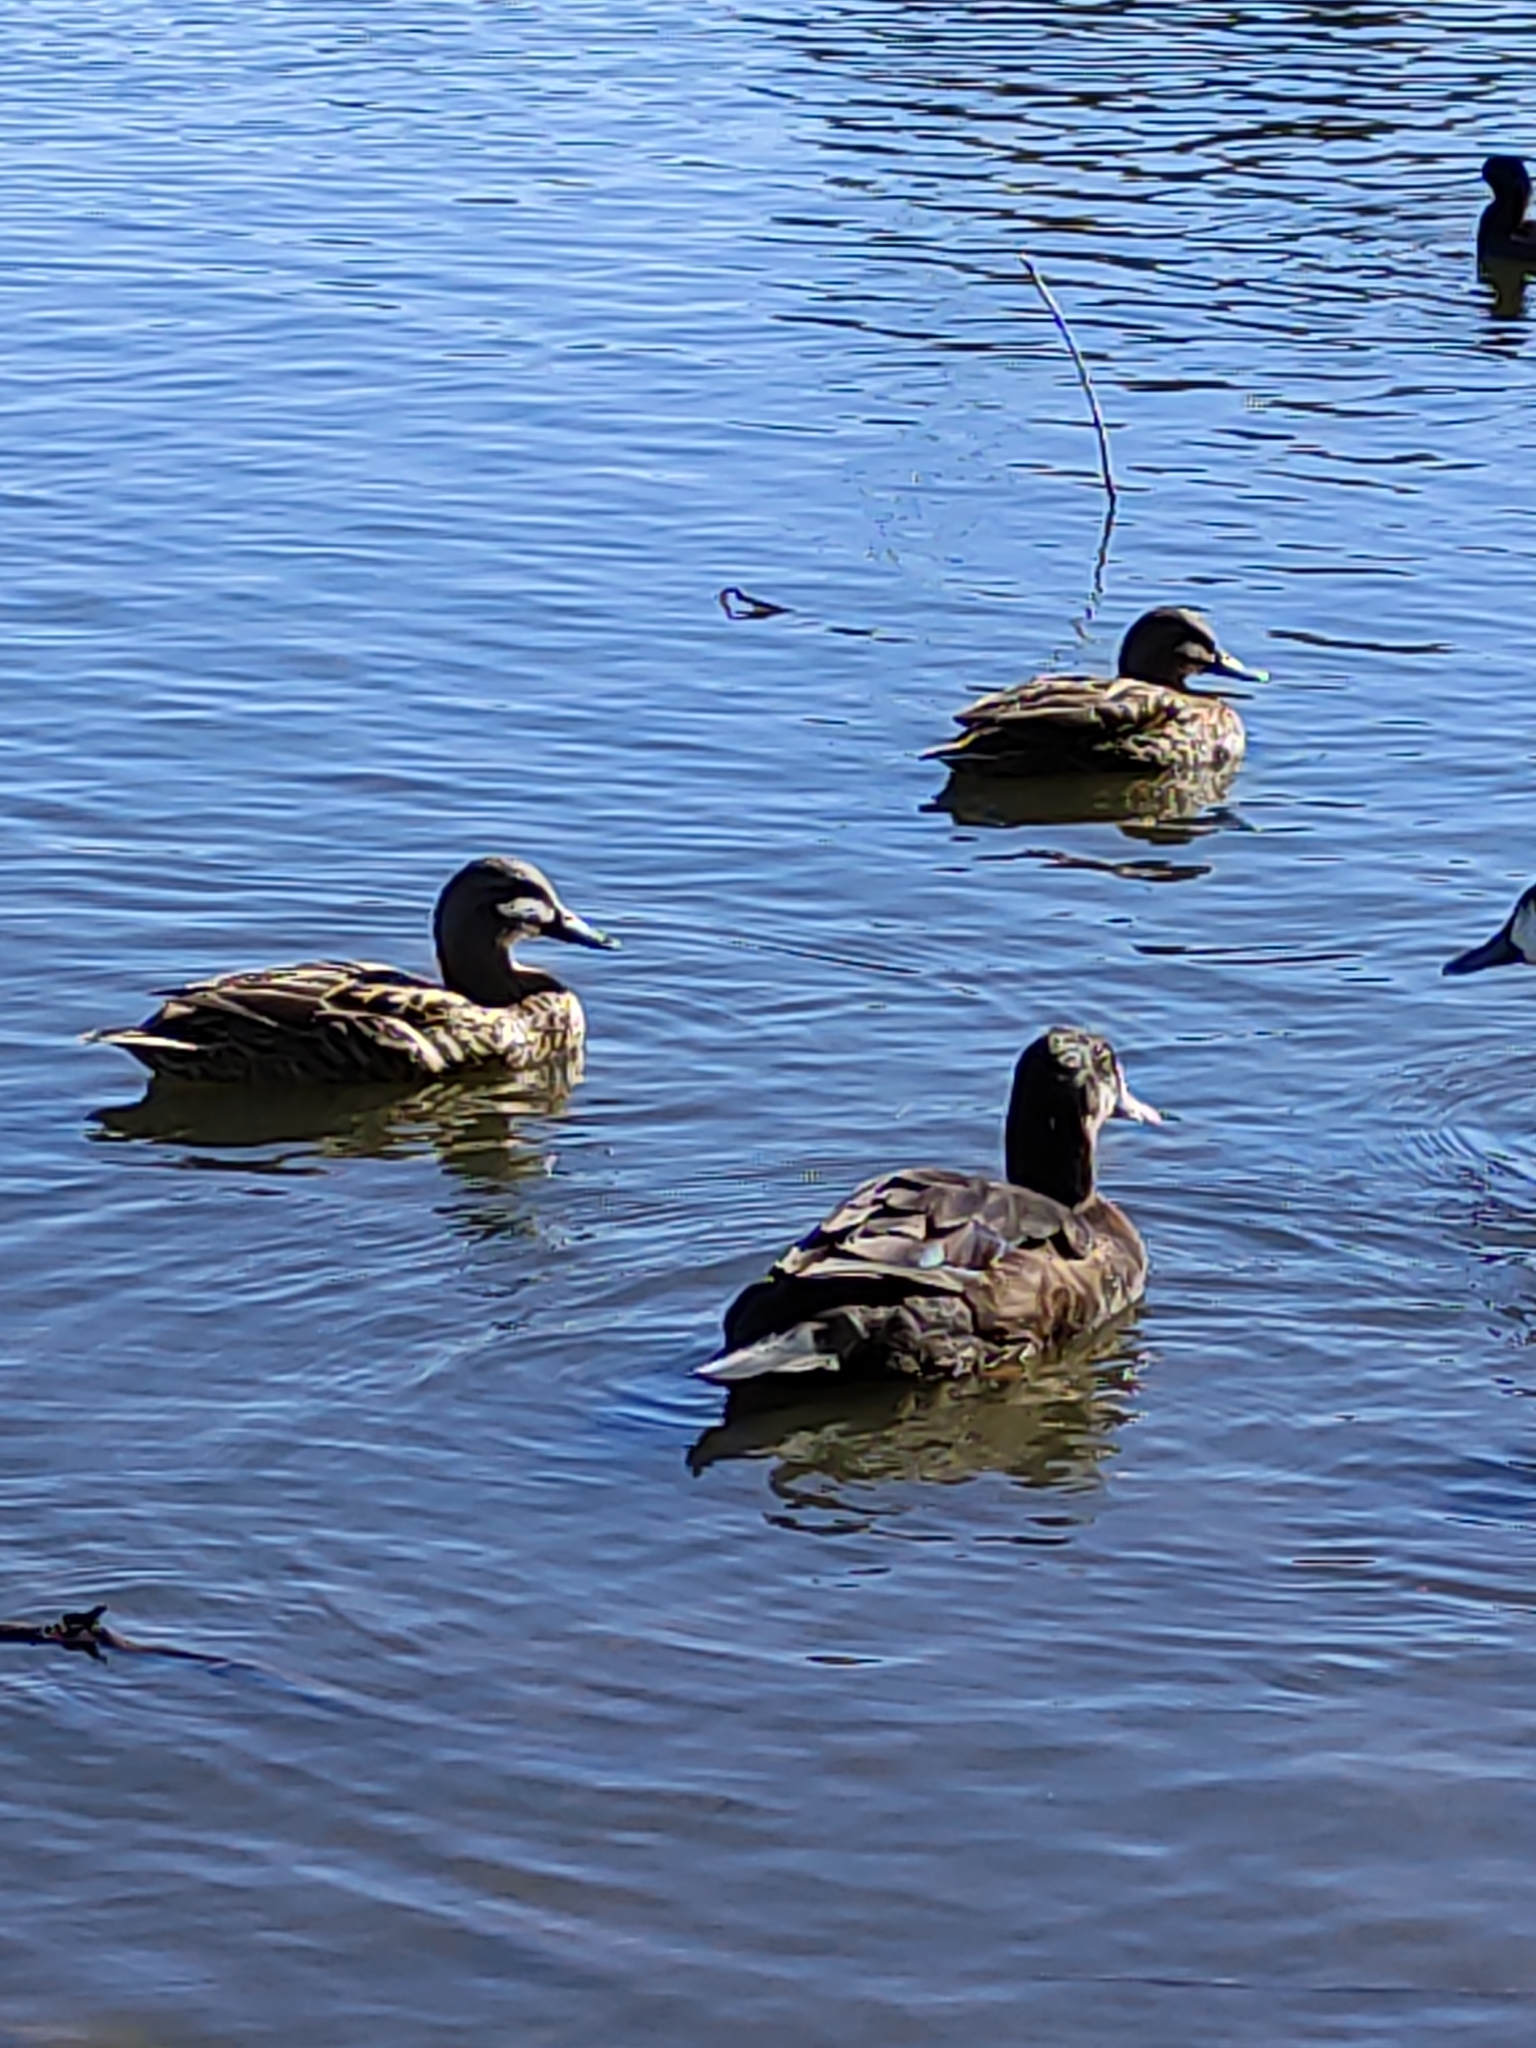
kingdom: Animalia
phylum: Chordata
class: Aves
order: Anseriformes
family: Anatidae
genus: Anas
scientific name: Anas
